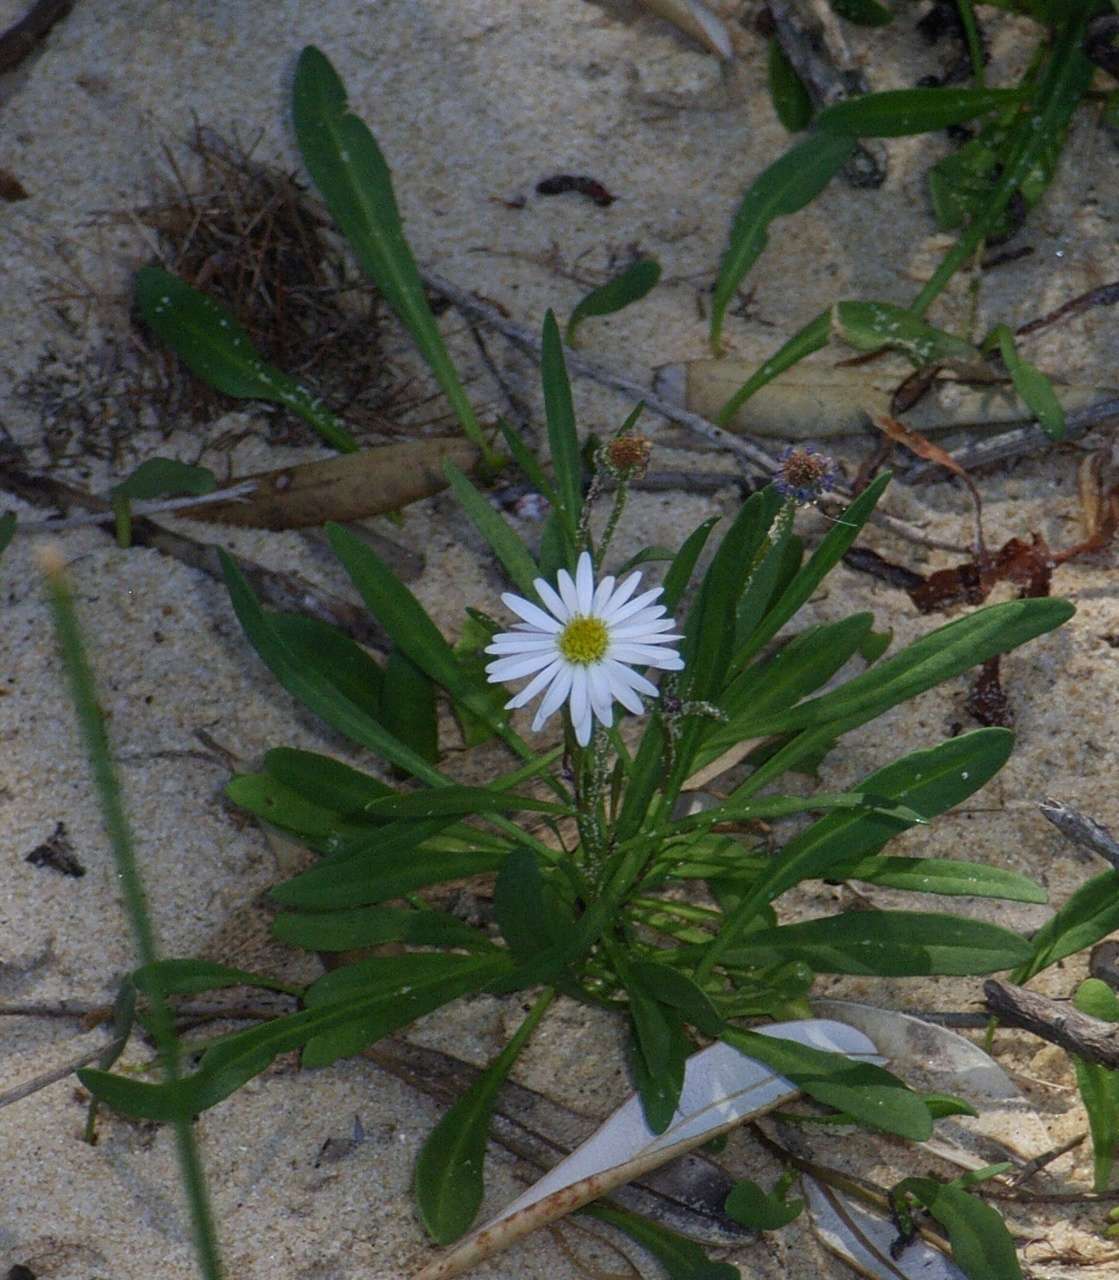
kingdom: Plantae
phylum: Tracheophyta
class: Magnoliopsida
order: Asterales
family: Asteraceae
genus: Brachyscome
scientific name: Brachyscome graminea
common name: Grass daisy
